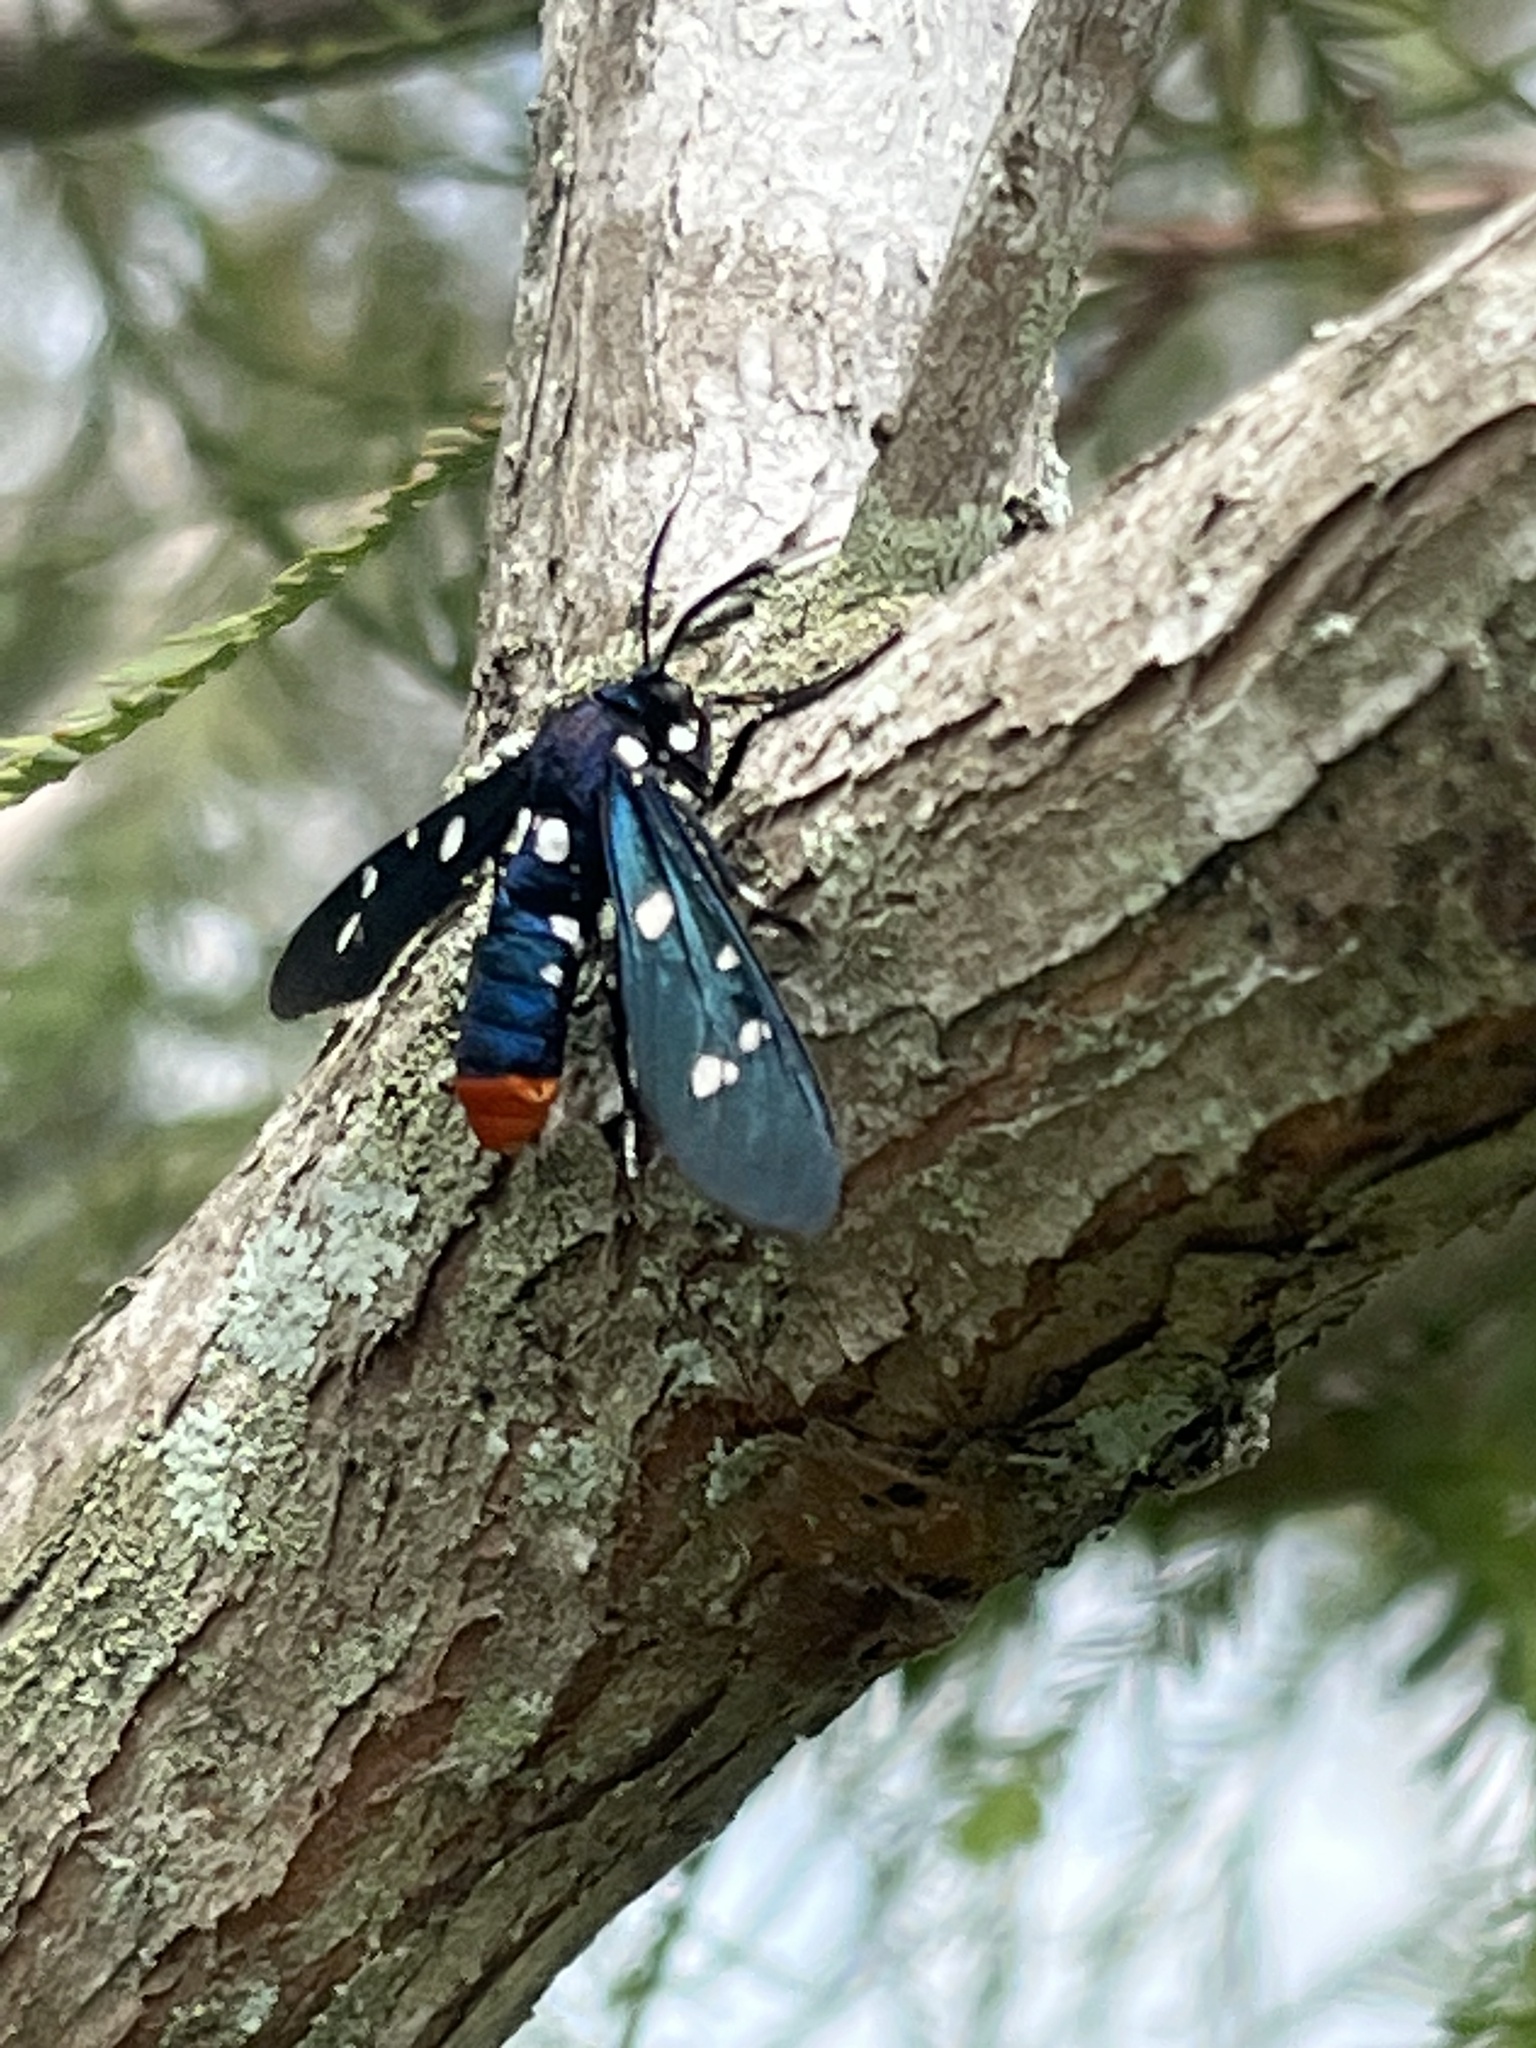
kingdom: Animalia
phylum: Arthropoda
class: Insecta
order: Lepidoptera
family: Erebidae
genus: Syntomeida
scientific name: Syntomeida epilais
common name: Polka-dot wasp moth
